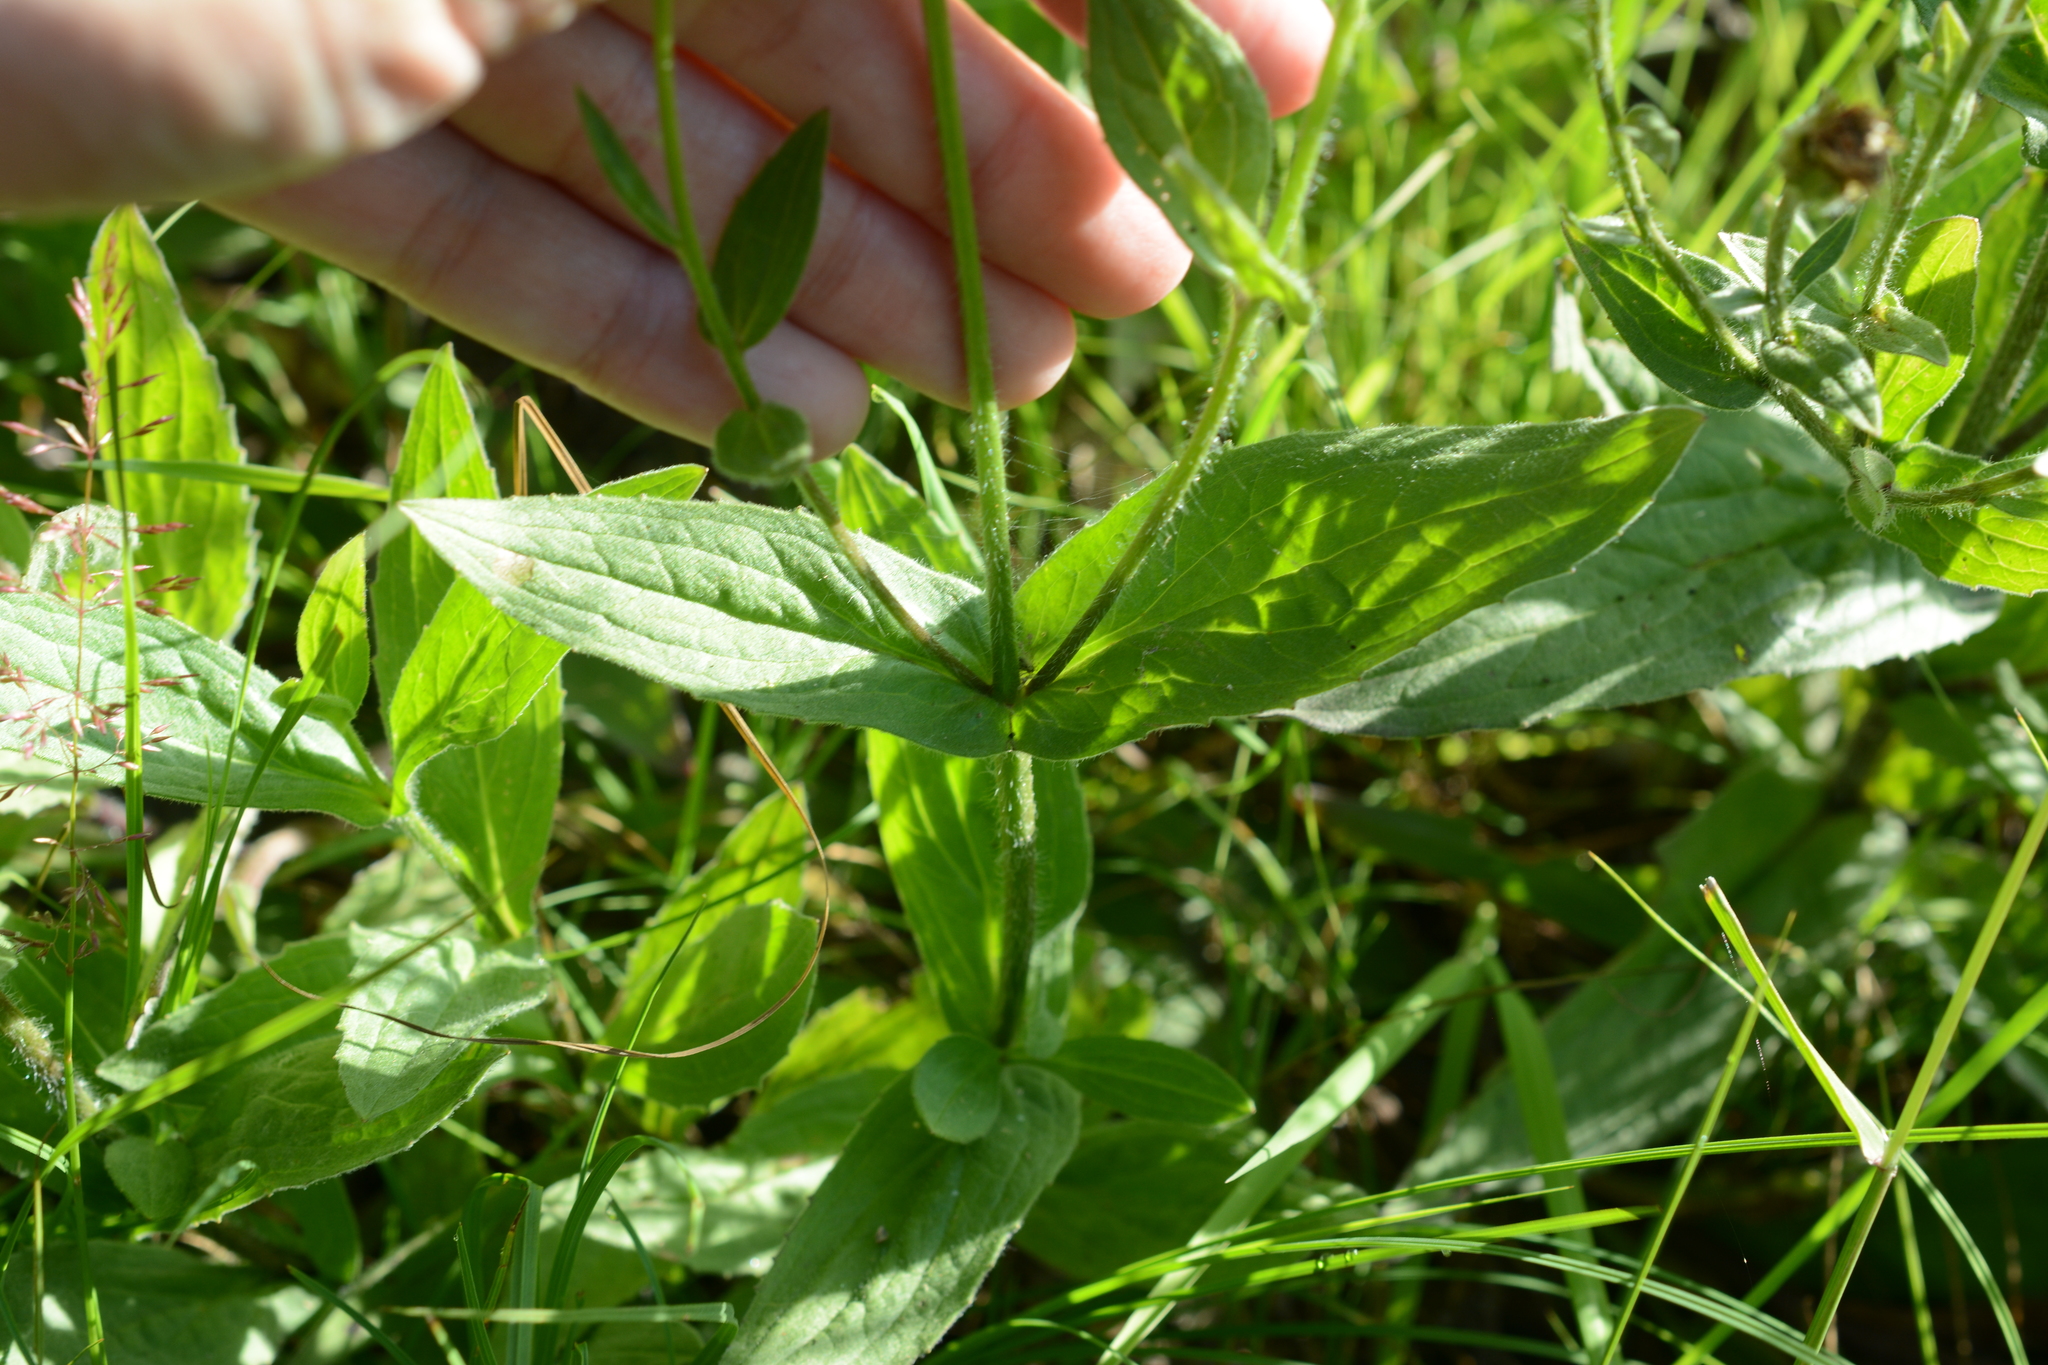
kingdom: Plantae
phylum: Tracheophyta
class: Magnoliopsida
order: Asterales
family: Asteraceae
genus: Arnica
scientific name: Arnica latifolia
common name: Arnica
